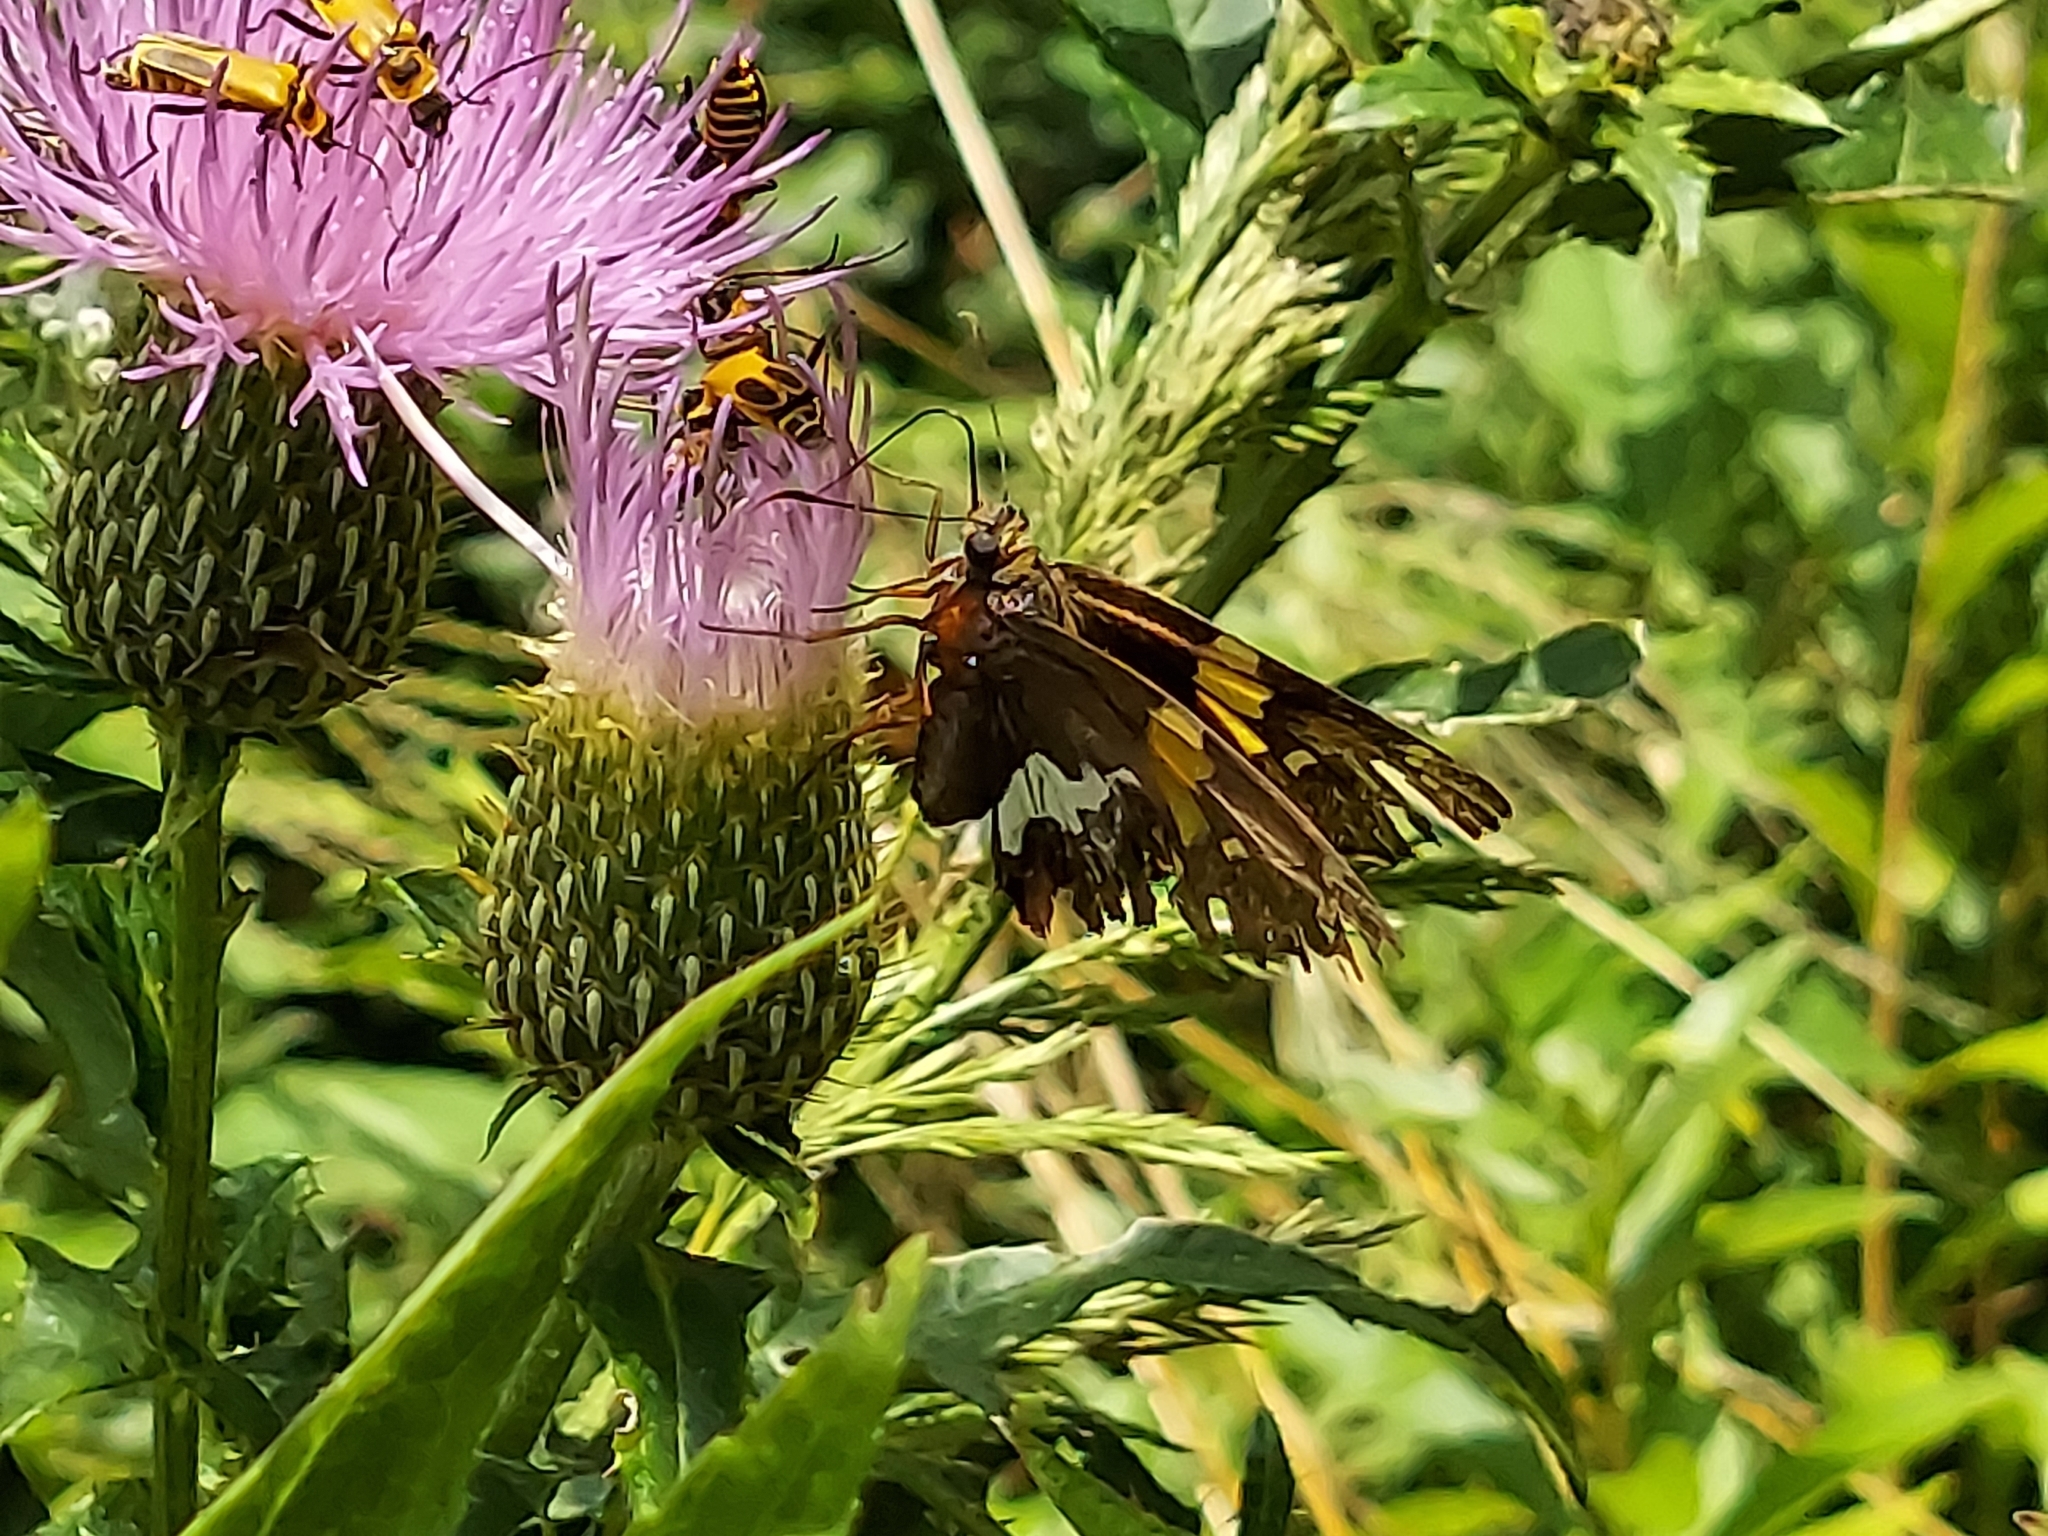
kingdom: Animalia
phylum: Arthropoda
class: Insecta
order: Lepidoptera
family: Hesperiidae
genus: Epargyreus
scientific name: Epargyreus clarus
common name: Silver-spotted skipper
